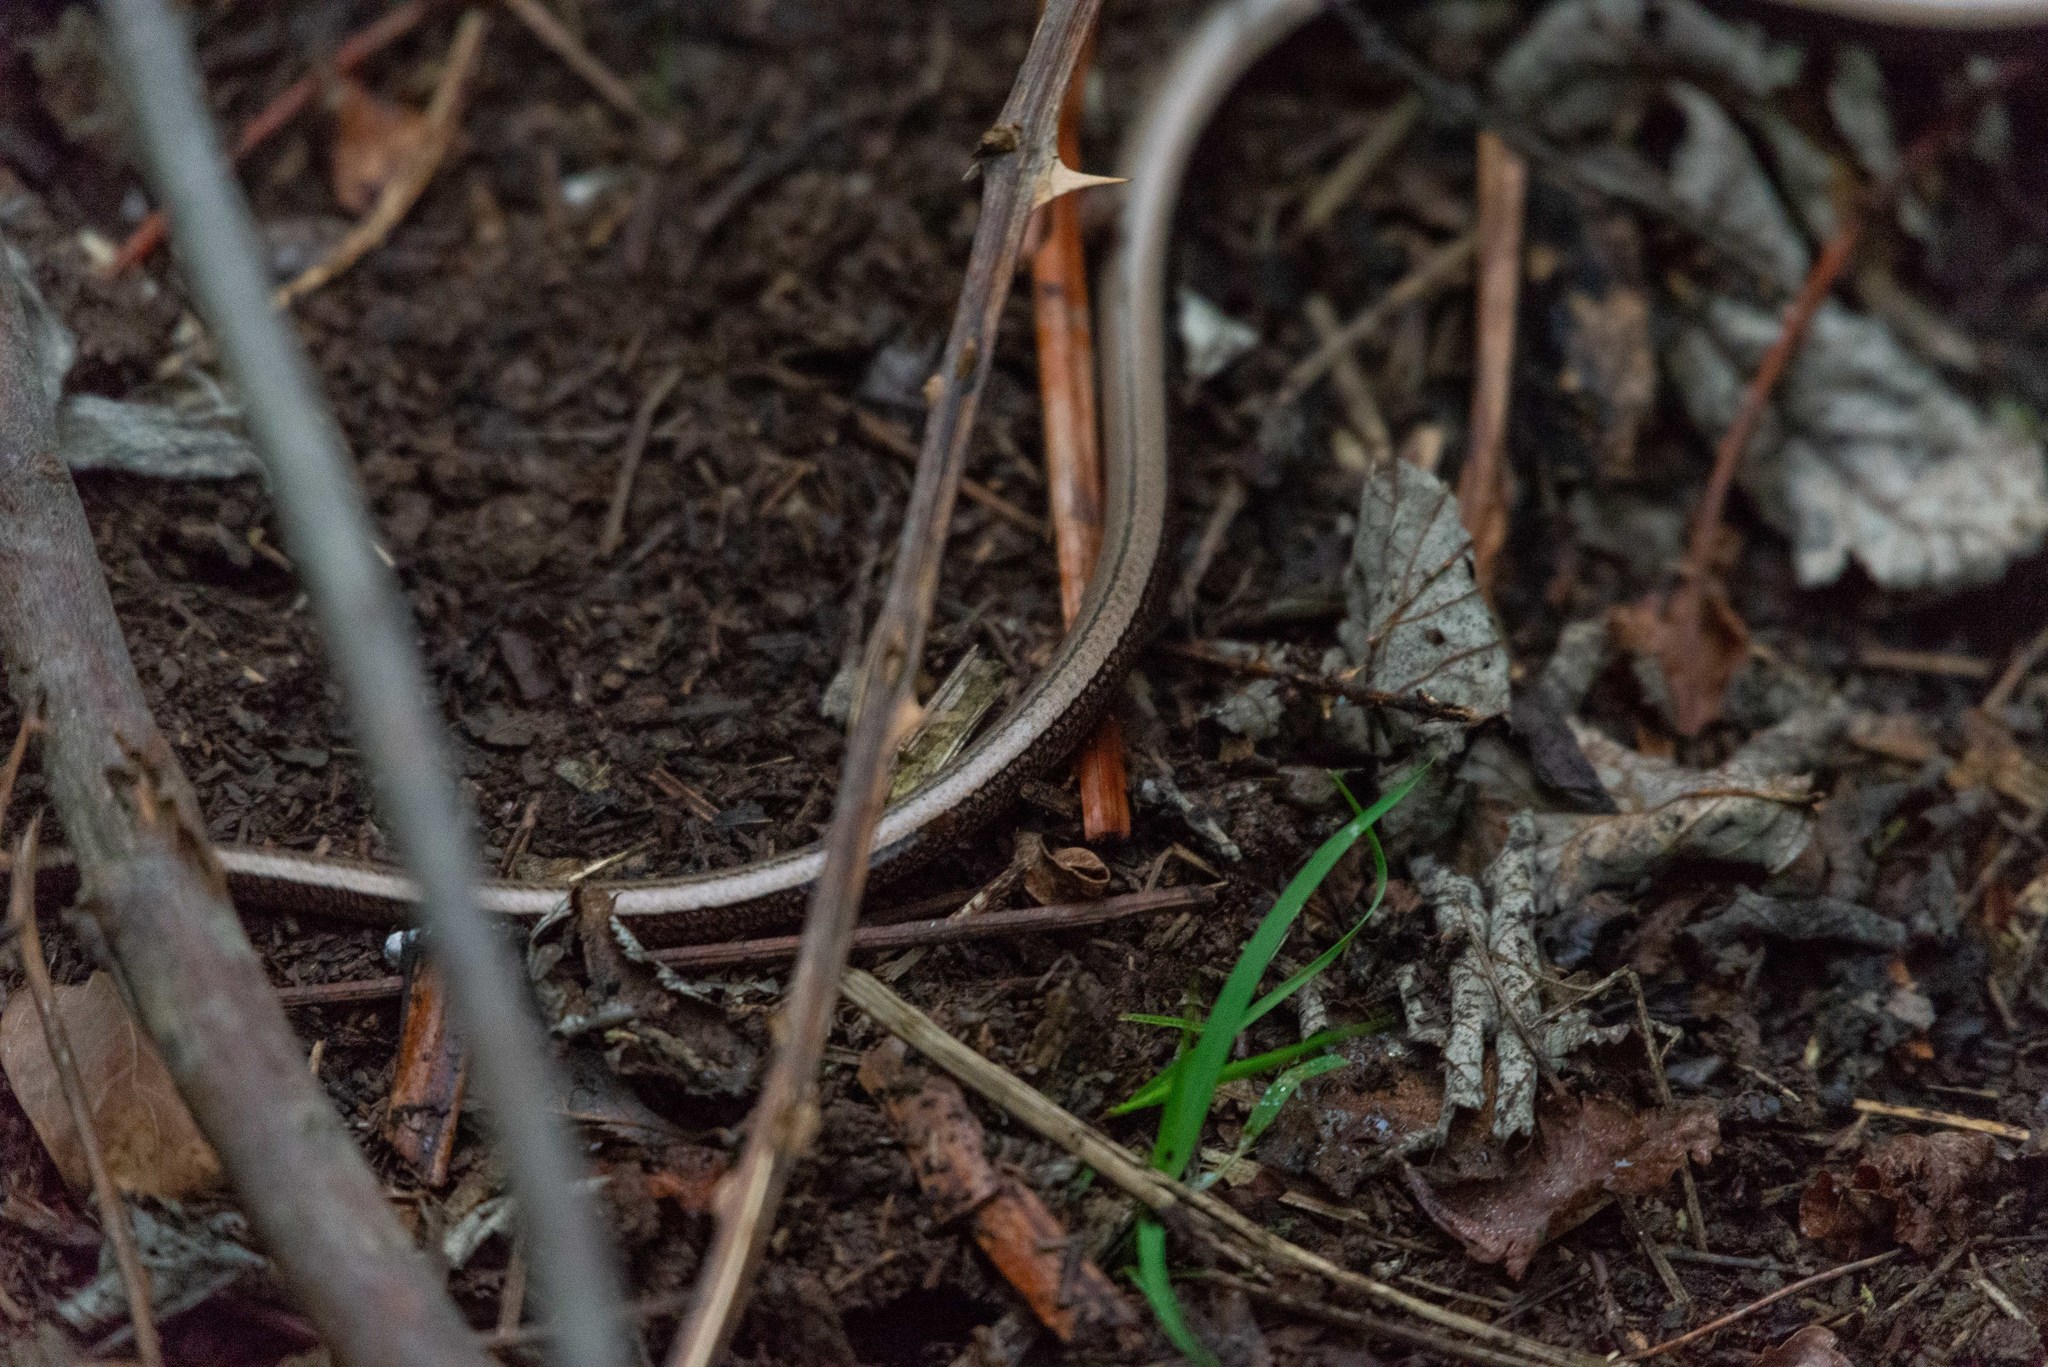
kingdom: Animalia
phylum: Chordata
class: Squamata
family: Anguidae
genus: Anguis
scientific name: Anguis fragilis
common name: Slow worm
